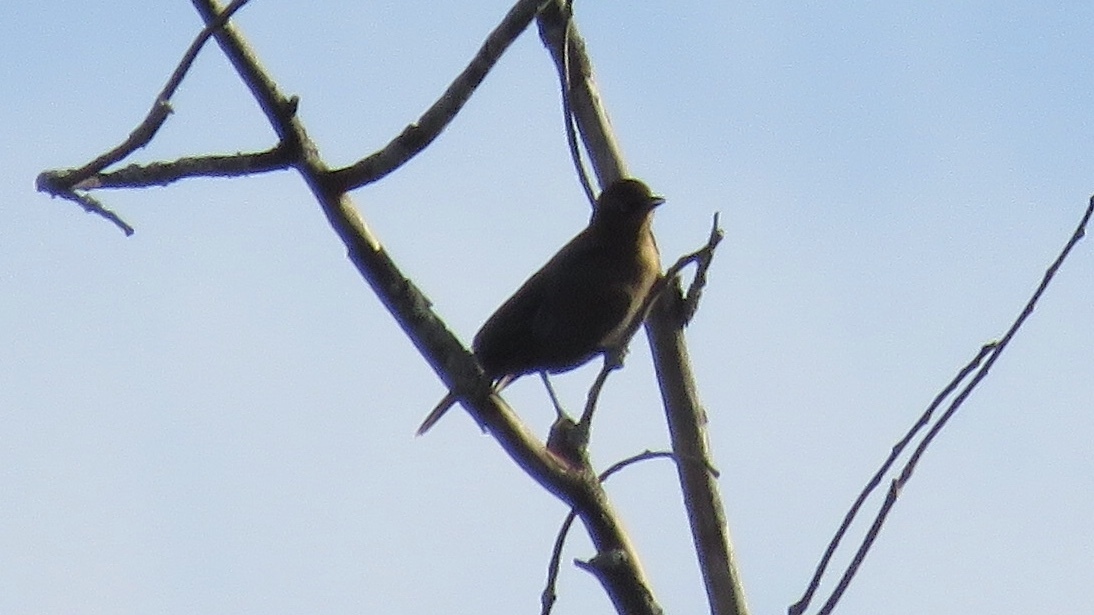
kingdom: Animalia
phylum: Chordata
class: Aves
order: Passeriformes
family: Icteridae
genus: Euphagus
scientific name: Euphagus carolinus
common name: Rusty blackbird
